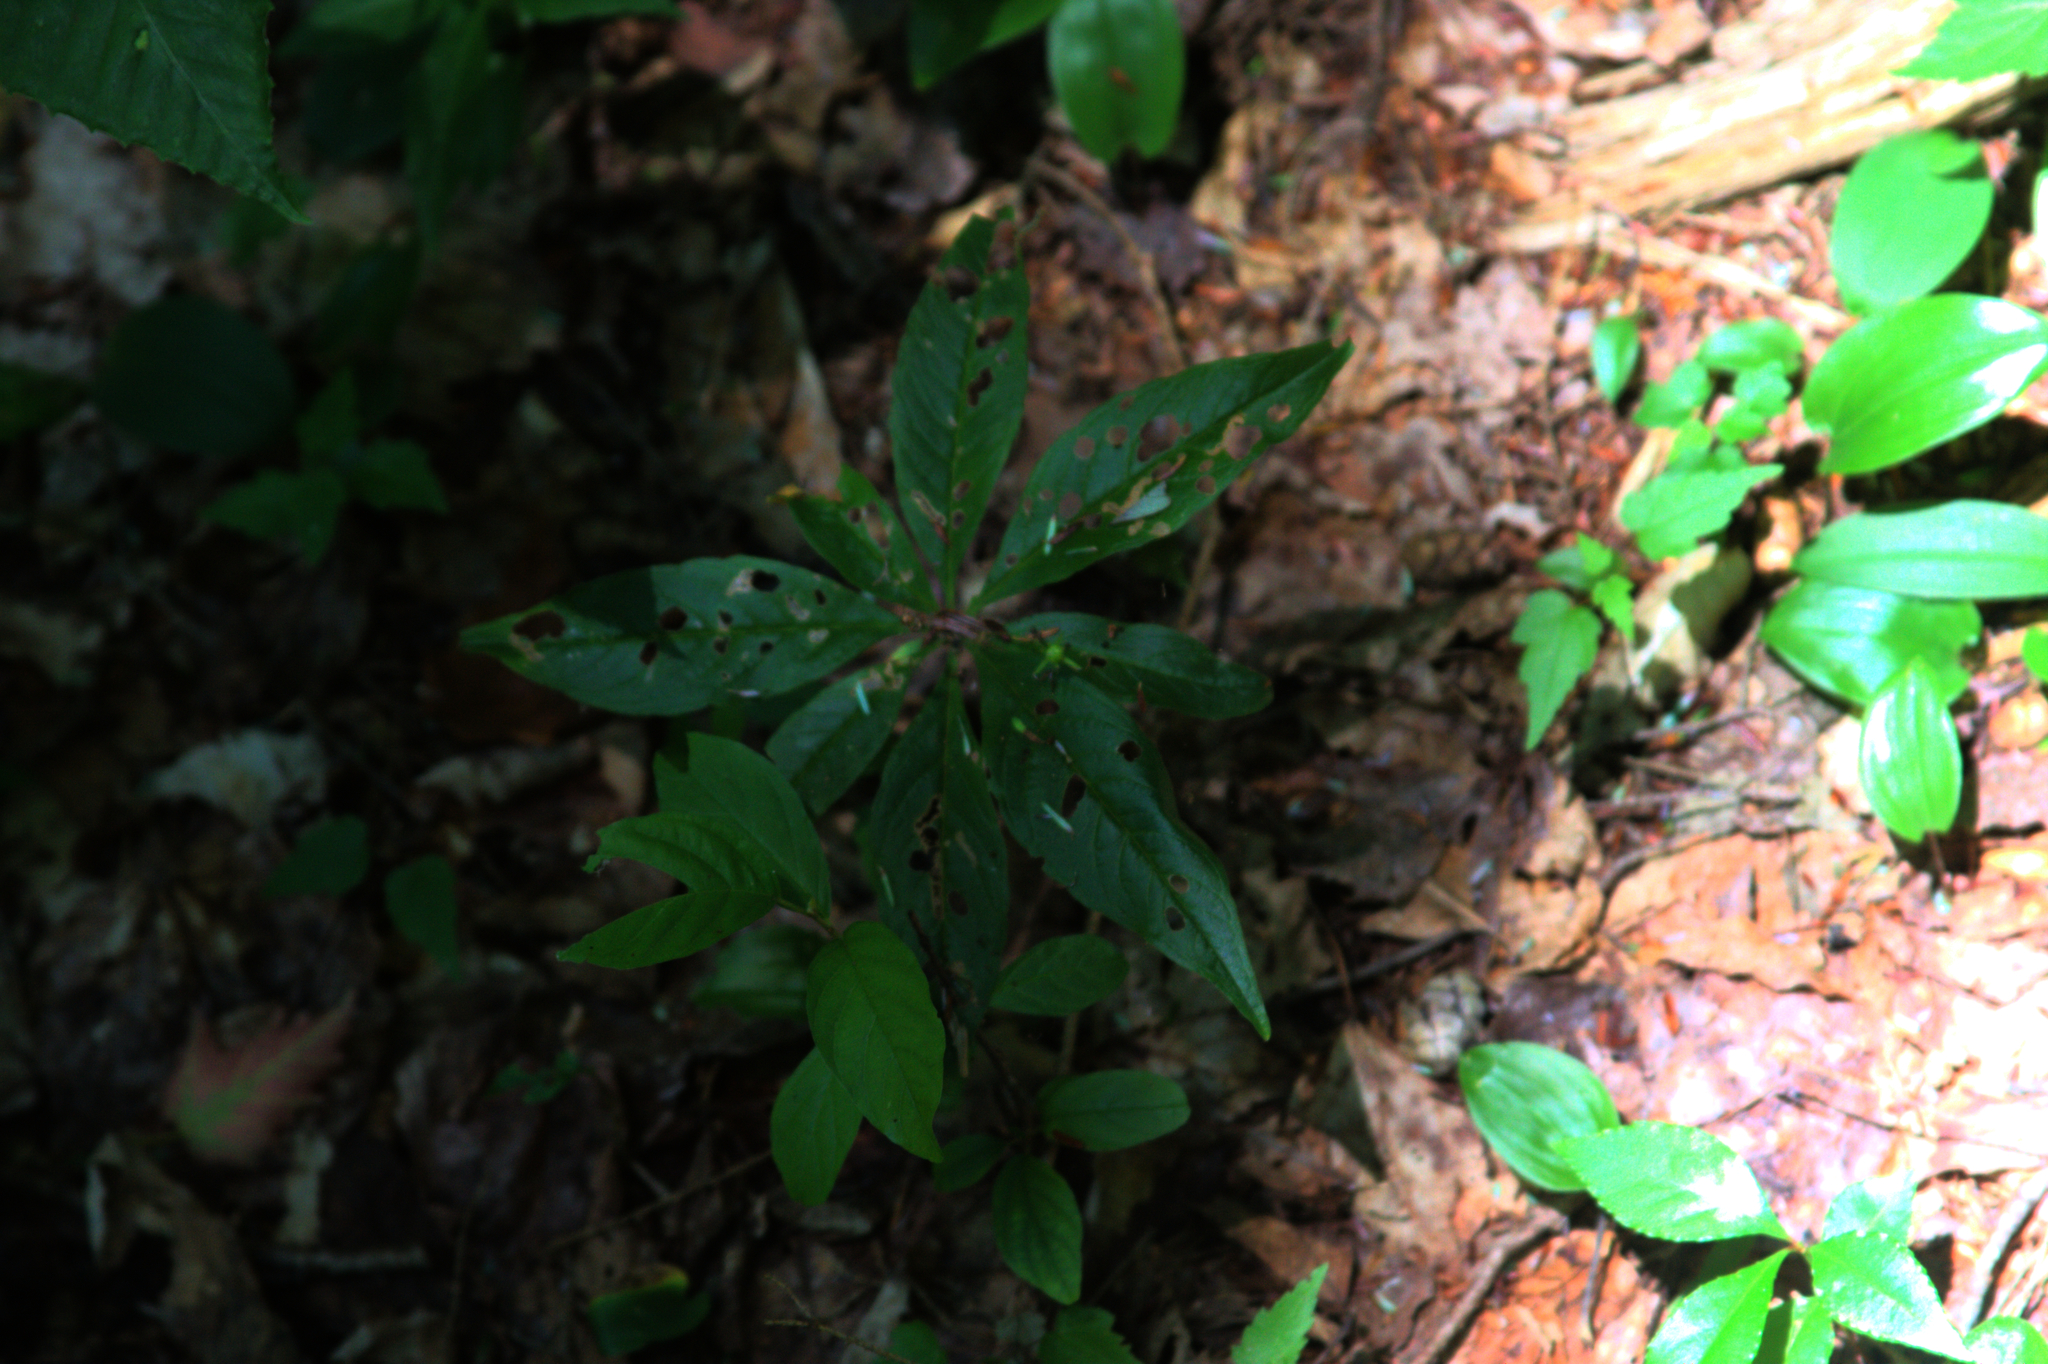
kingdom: Plantae
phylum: Tracheophyta
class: Magnoliopsida
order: Ericales
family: Primulaceae
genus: Lysimachia
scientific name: Lysimachia borealis
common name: American starflower
